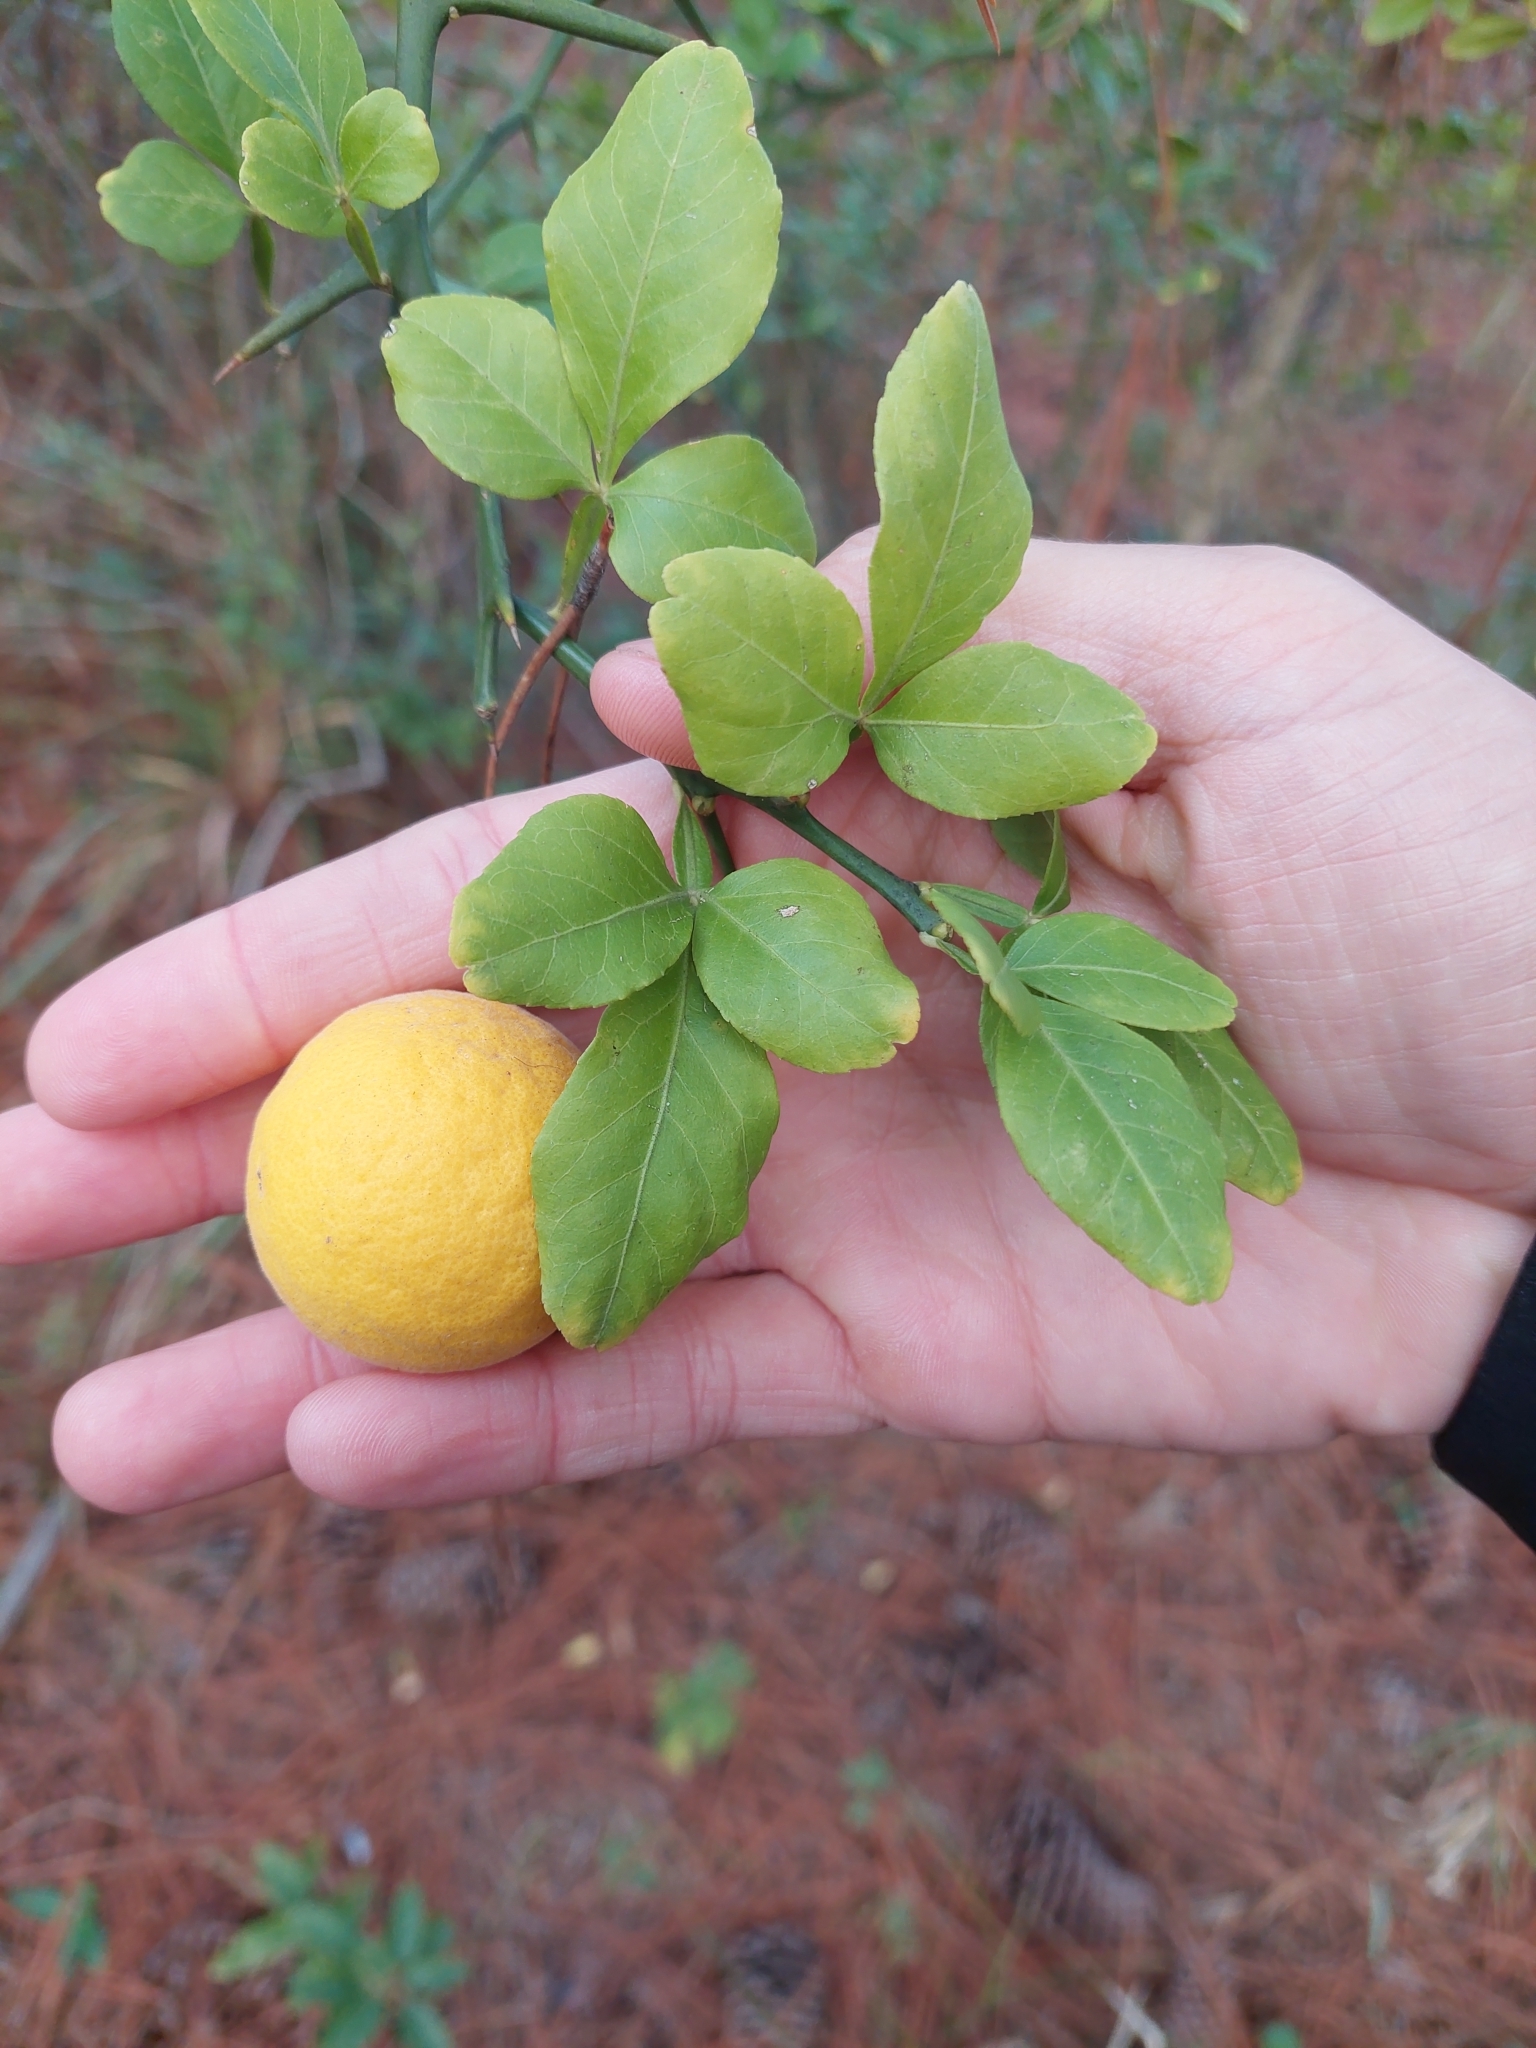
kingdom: Plantae
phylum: Tracheophyta
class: Magnoliopsida
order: Sapindales
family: Rutaceae
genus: Citrus
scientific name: Citrus trifoliata
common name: Japanese bitter-orange
